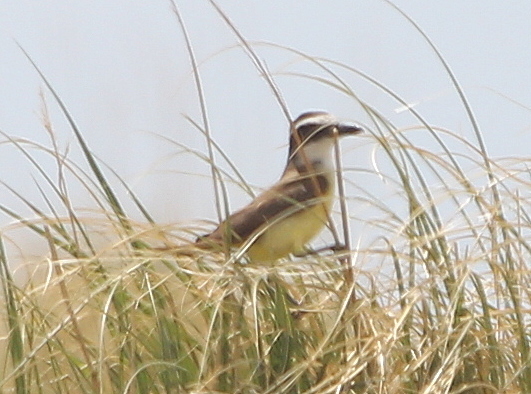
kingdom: Animalia
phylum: Chordata
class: Aves
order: Passeriformes
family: Tyrannidae
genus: Pitangus
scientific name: Pitangus sulphuratus
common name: Great kiskadee
